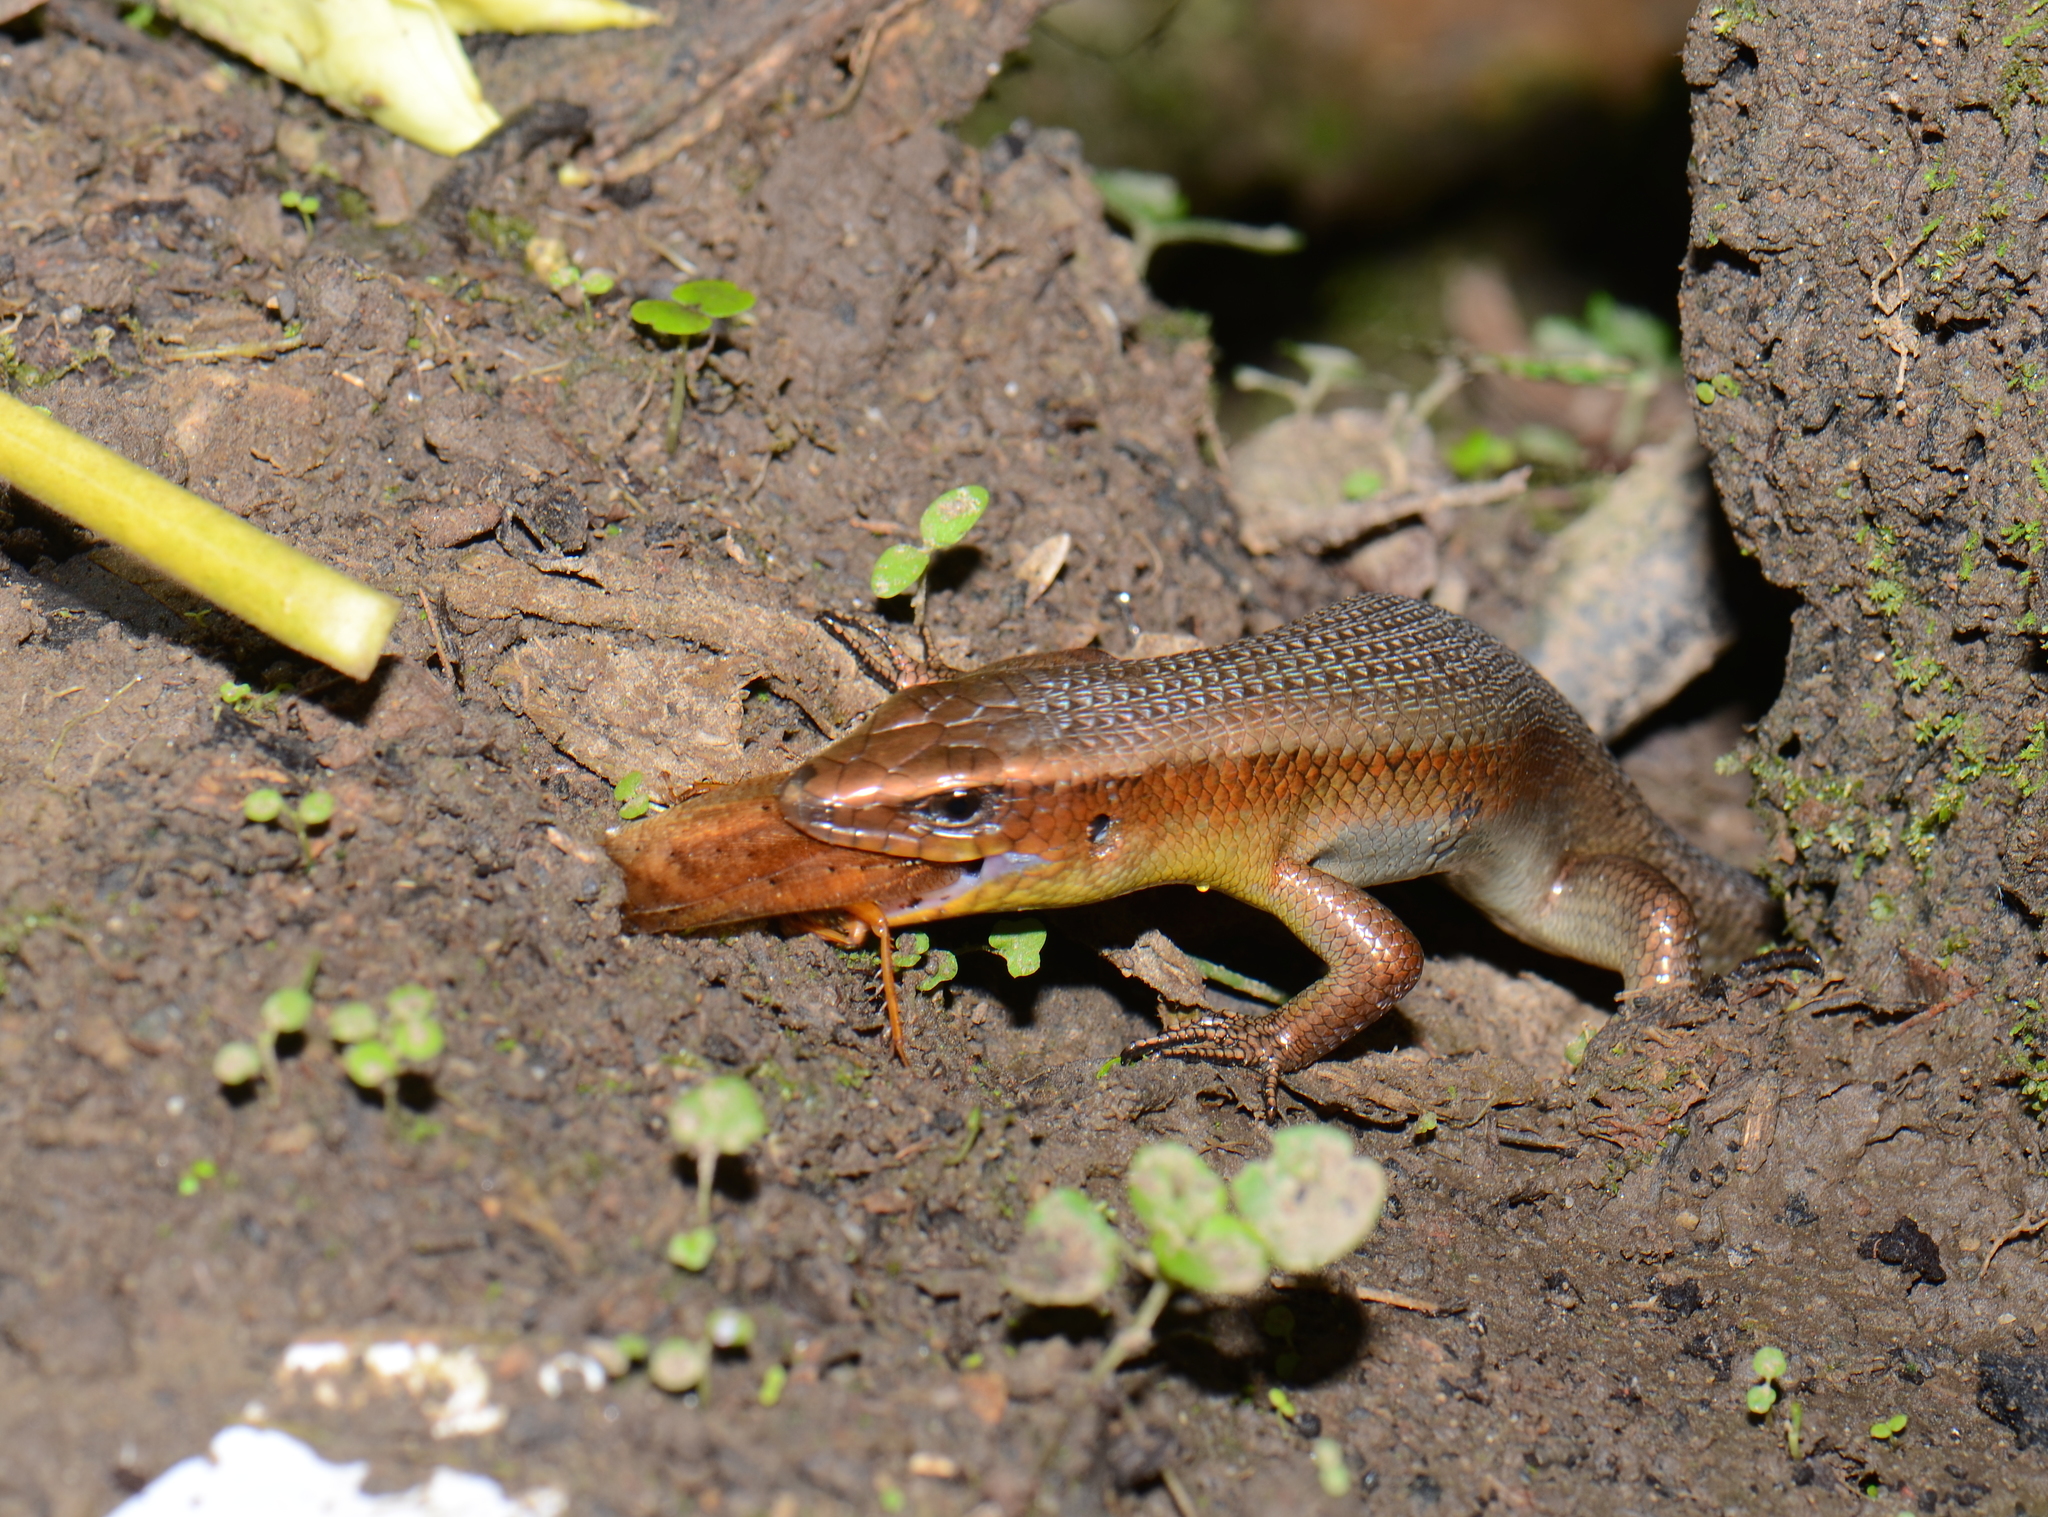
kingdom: Animalia
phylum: Chordata
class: Squamata
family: Scincidae
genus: Eutropis
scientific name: Eutropis multifasciata
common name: Common mabuya
